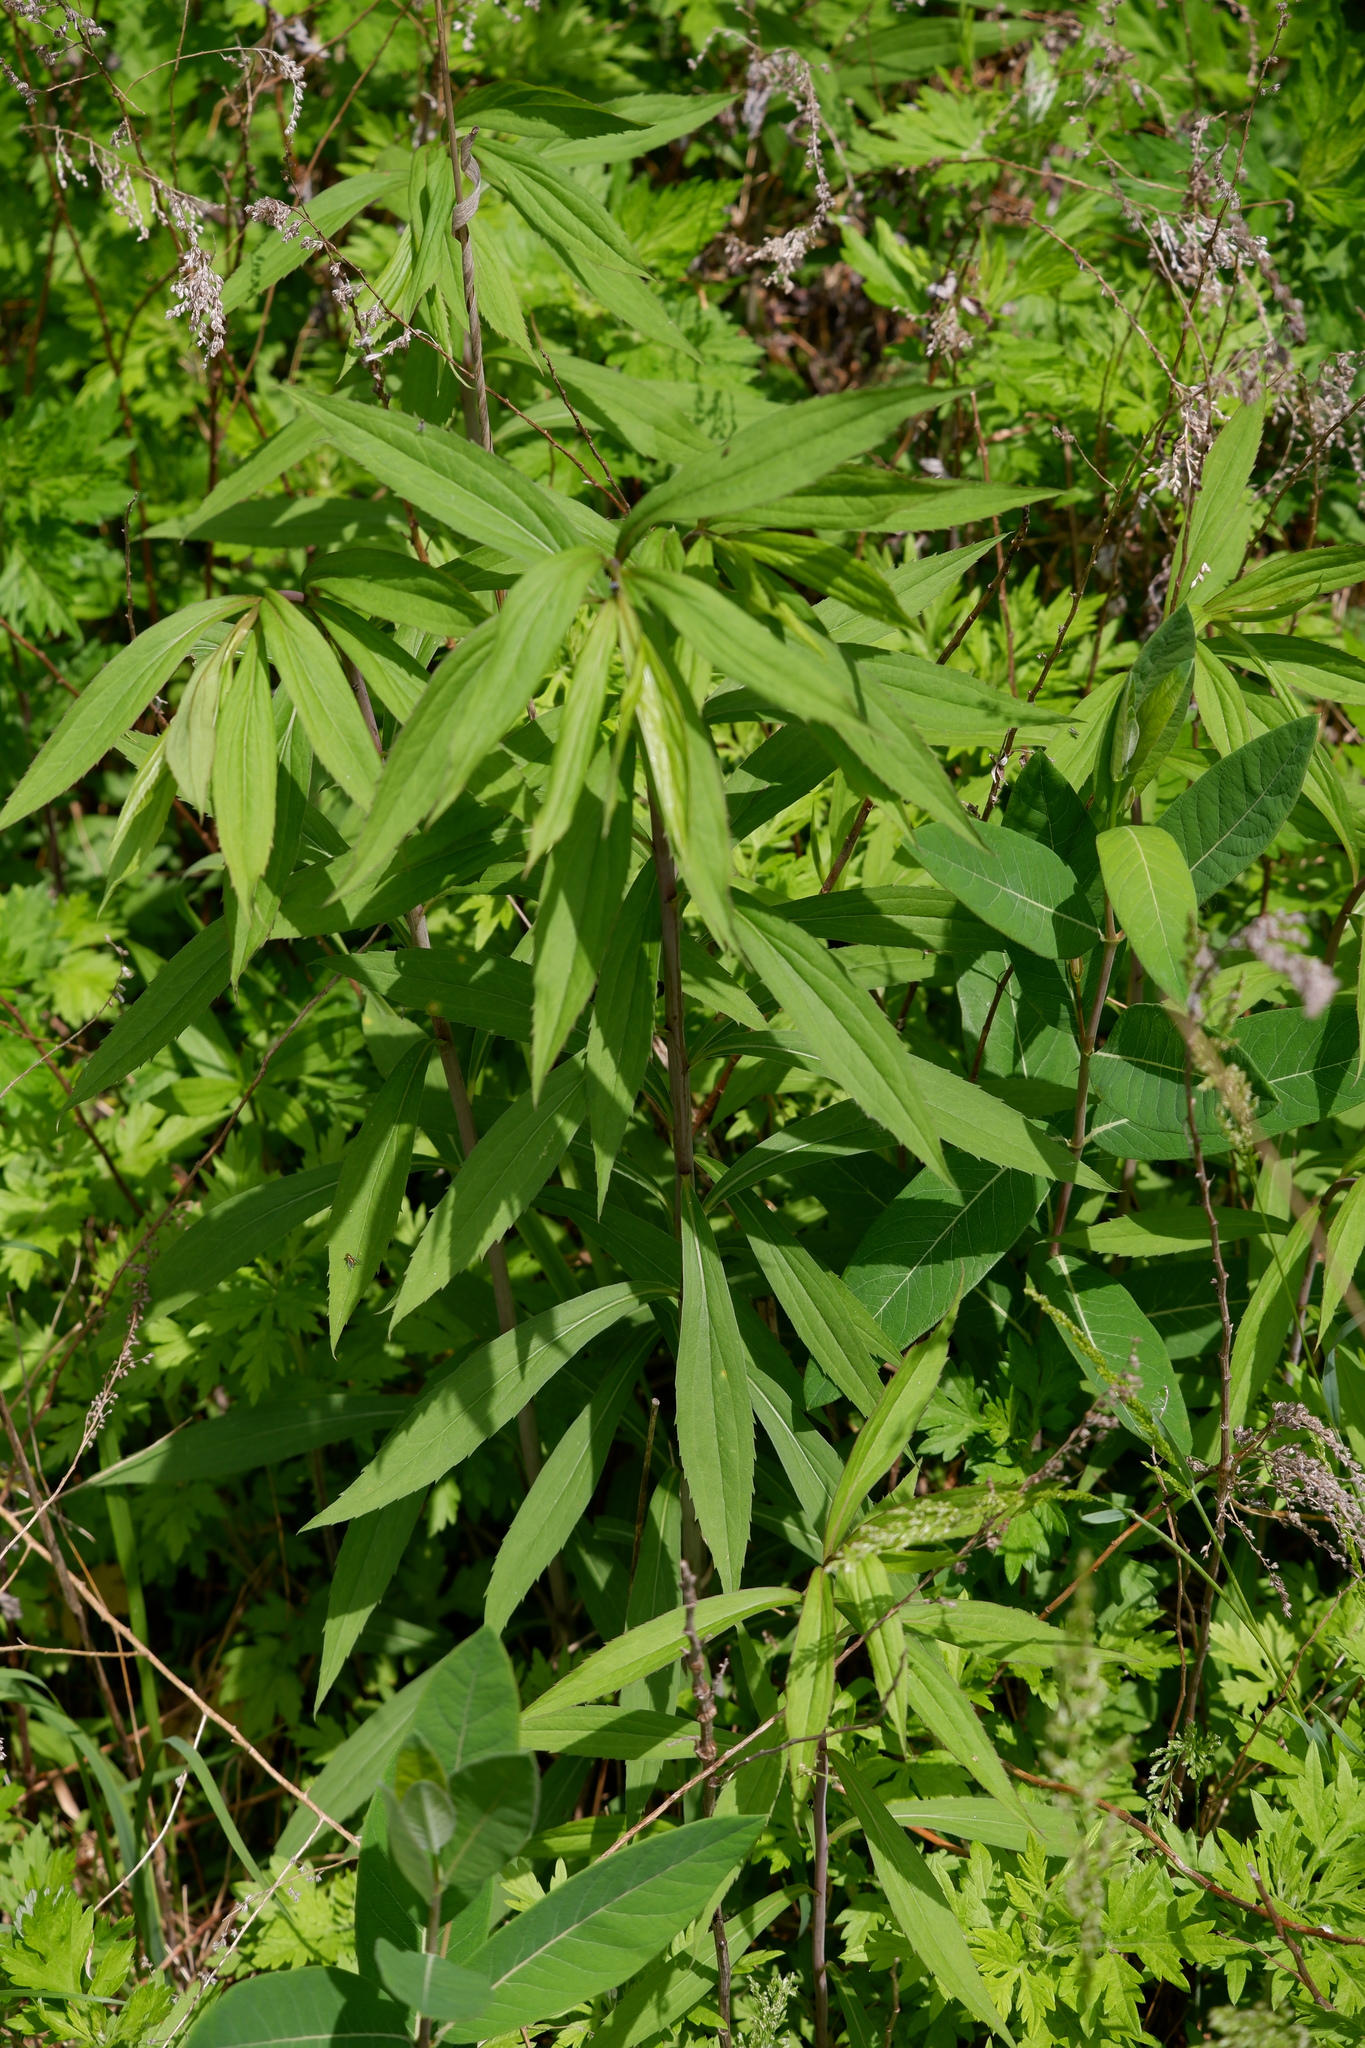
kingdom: Plantae
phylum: Tracheophyta
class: Magnoliopsida
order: Asterales
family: Asteraceae
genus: Solidago
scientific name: Solidago gigantea
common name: Giant goldenrod
